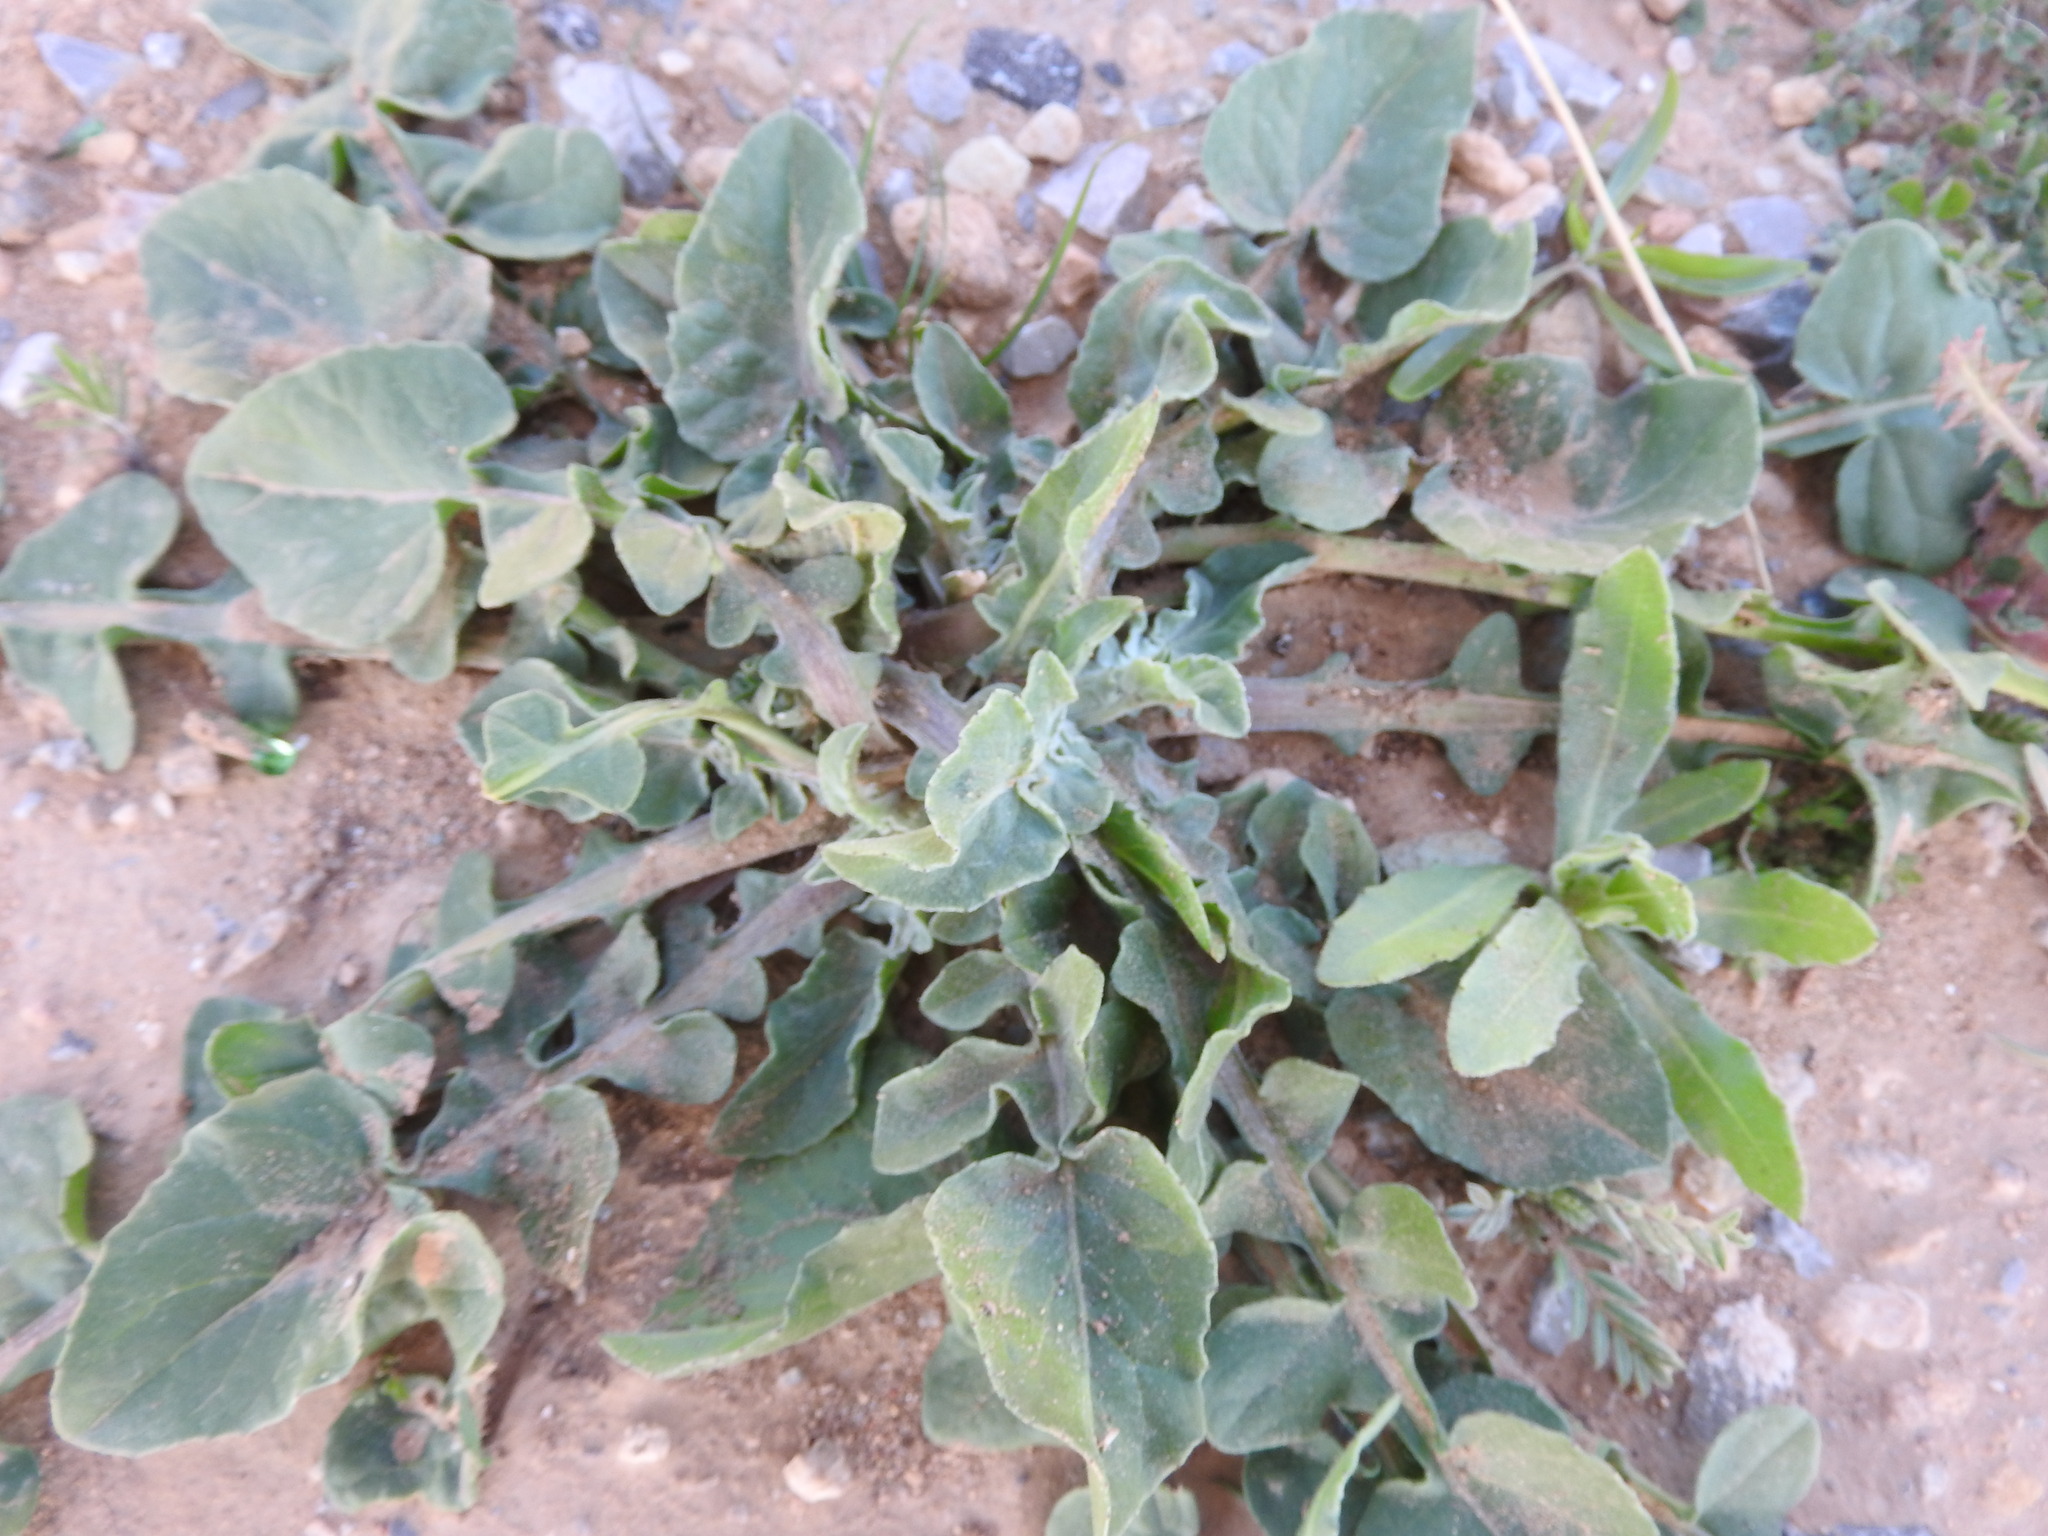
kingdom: Plantae
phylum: Tracheophyta
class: Magnoliopsida
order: Asterales
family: Asteraceae
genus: Centaurea
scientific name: Centaurea pullata
